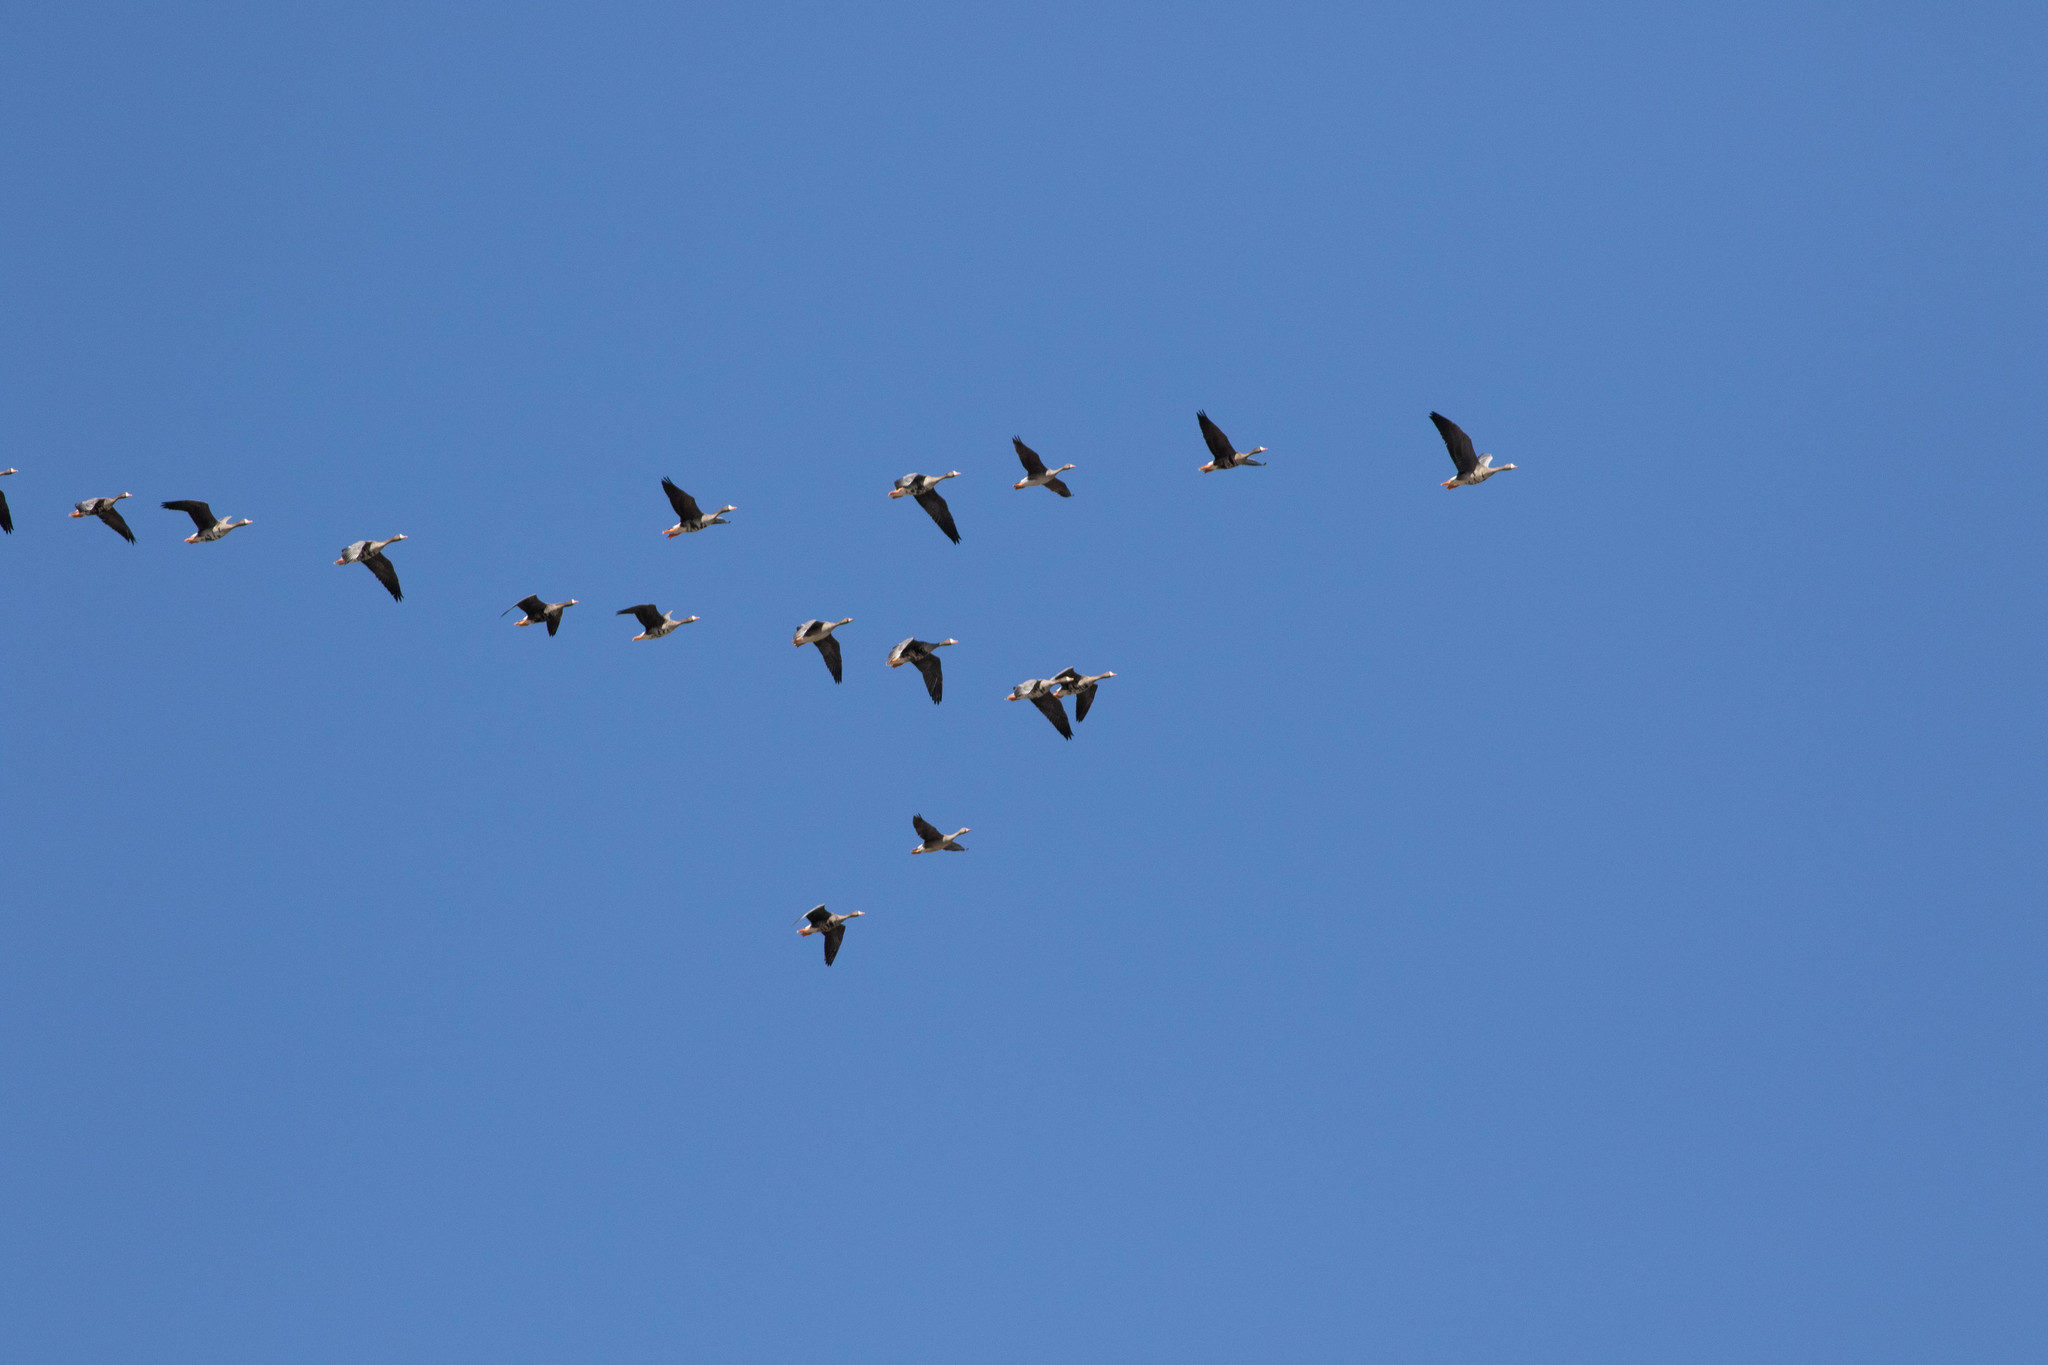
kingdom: Animalia
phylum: Chordata
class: Aves
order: Anseriformes
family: Anatidae
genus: Anser
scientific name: Anser albifrons
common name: Greater white-fronted goose
